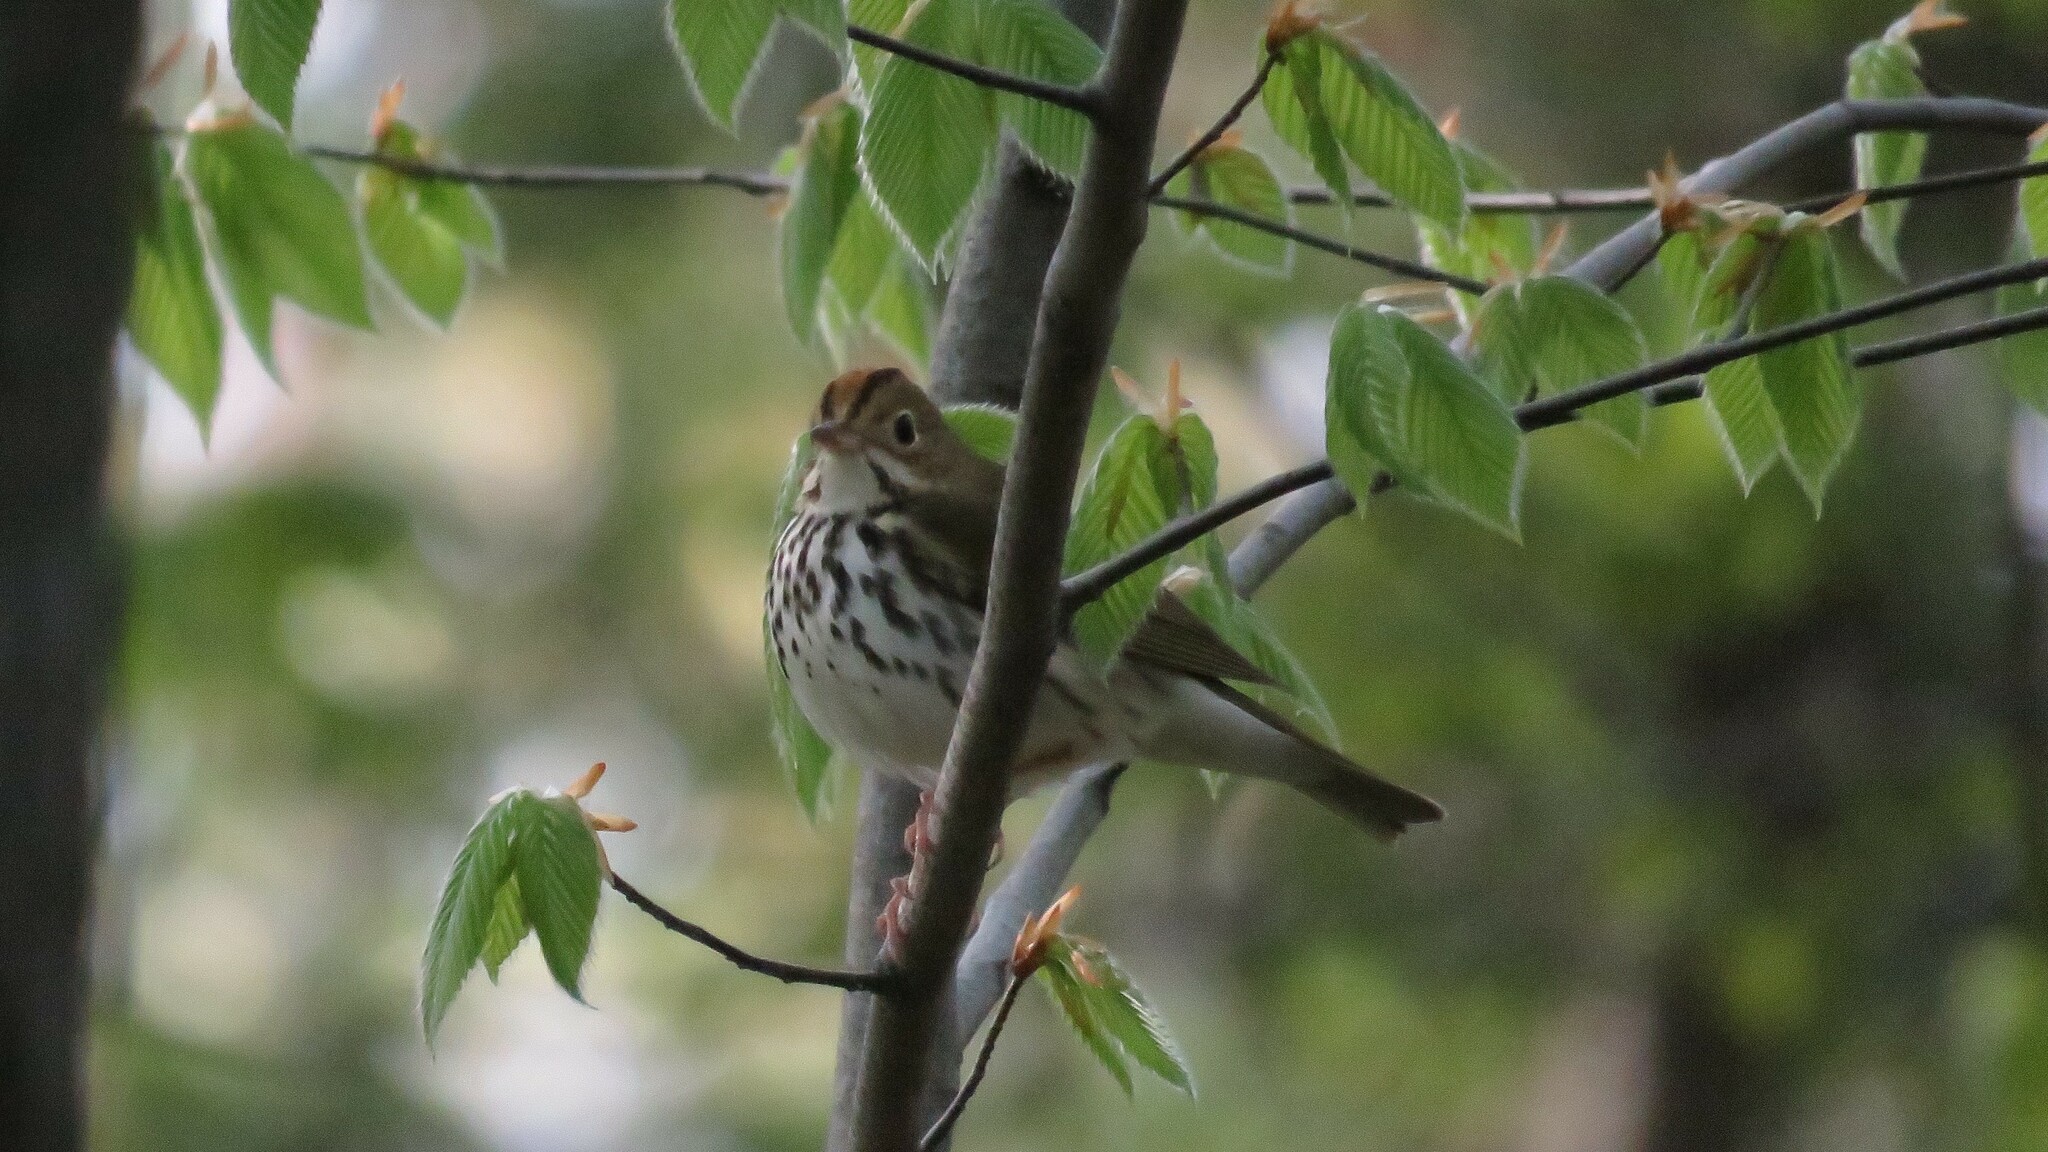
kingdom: Animalia
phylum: Chordata
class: Aves
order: Passeriformes
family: Parulidae
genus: Seiurus
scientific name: Seiurus aurocapilla
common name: Ovenbird
